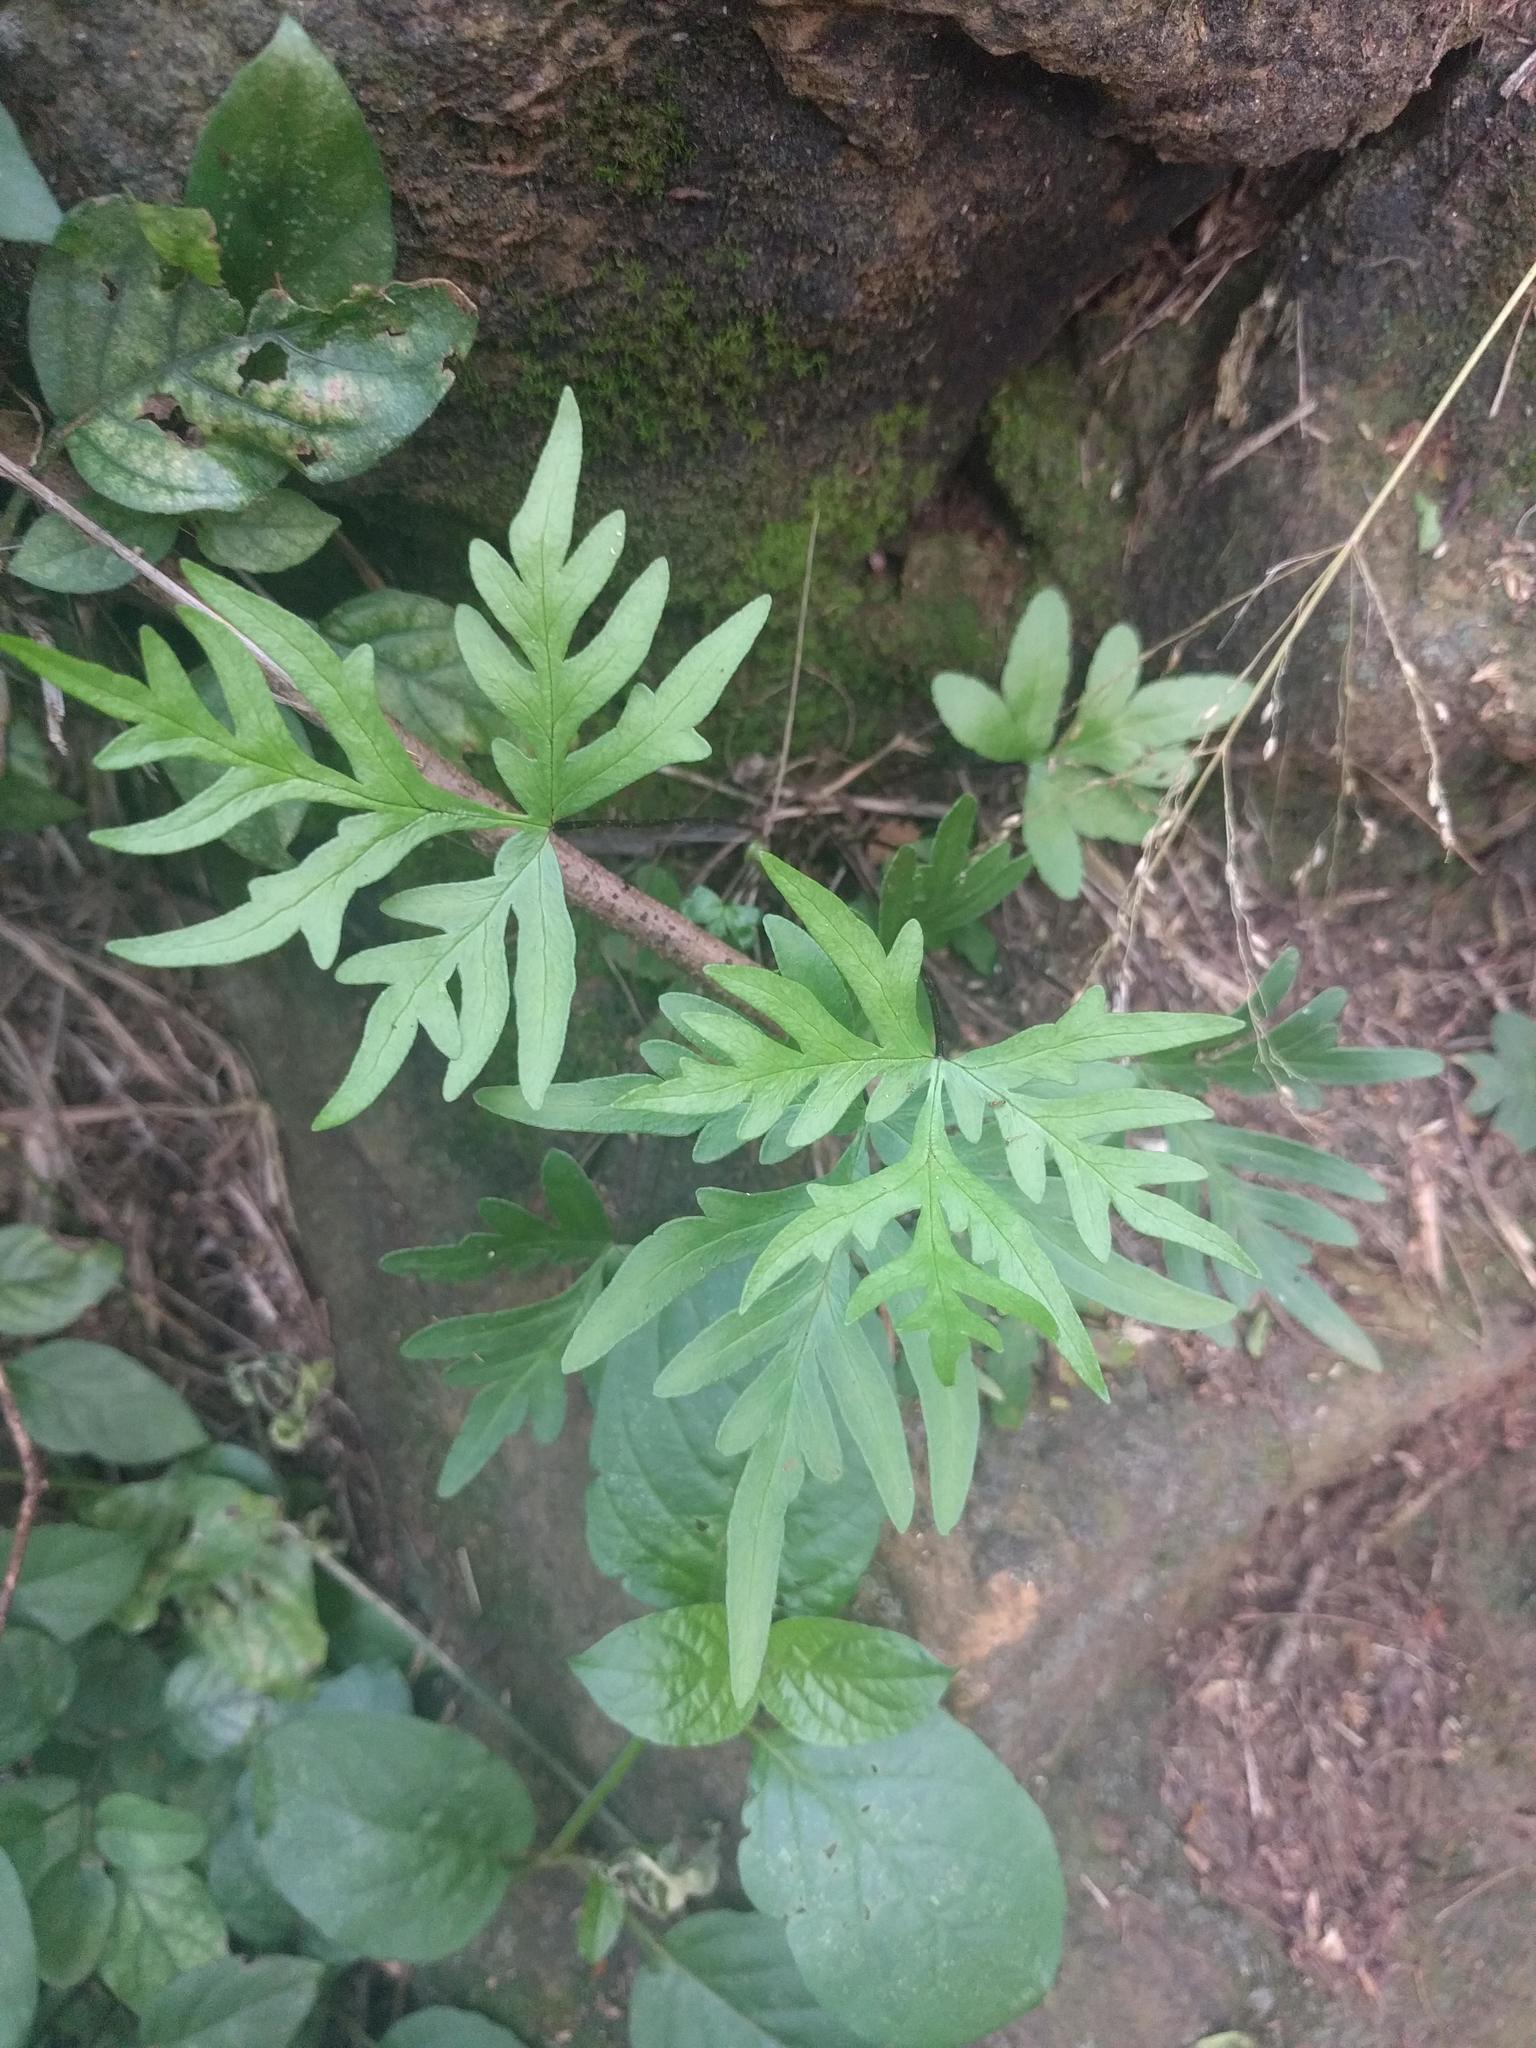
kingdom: Plantae
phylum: Tracheophyta
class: Polypodiopsida
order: Polypodiales
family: Pteridaceae
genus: Doryopteris
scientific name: Doryopteris decipiens
